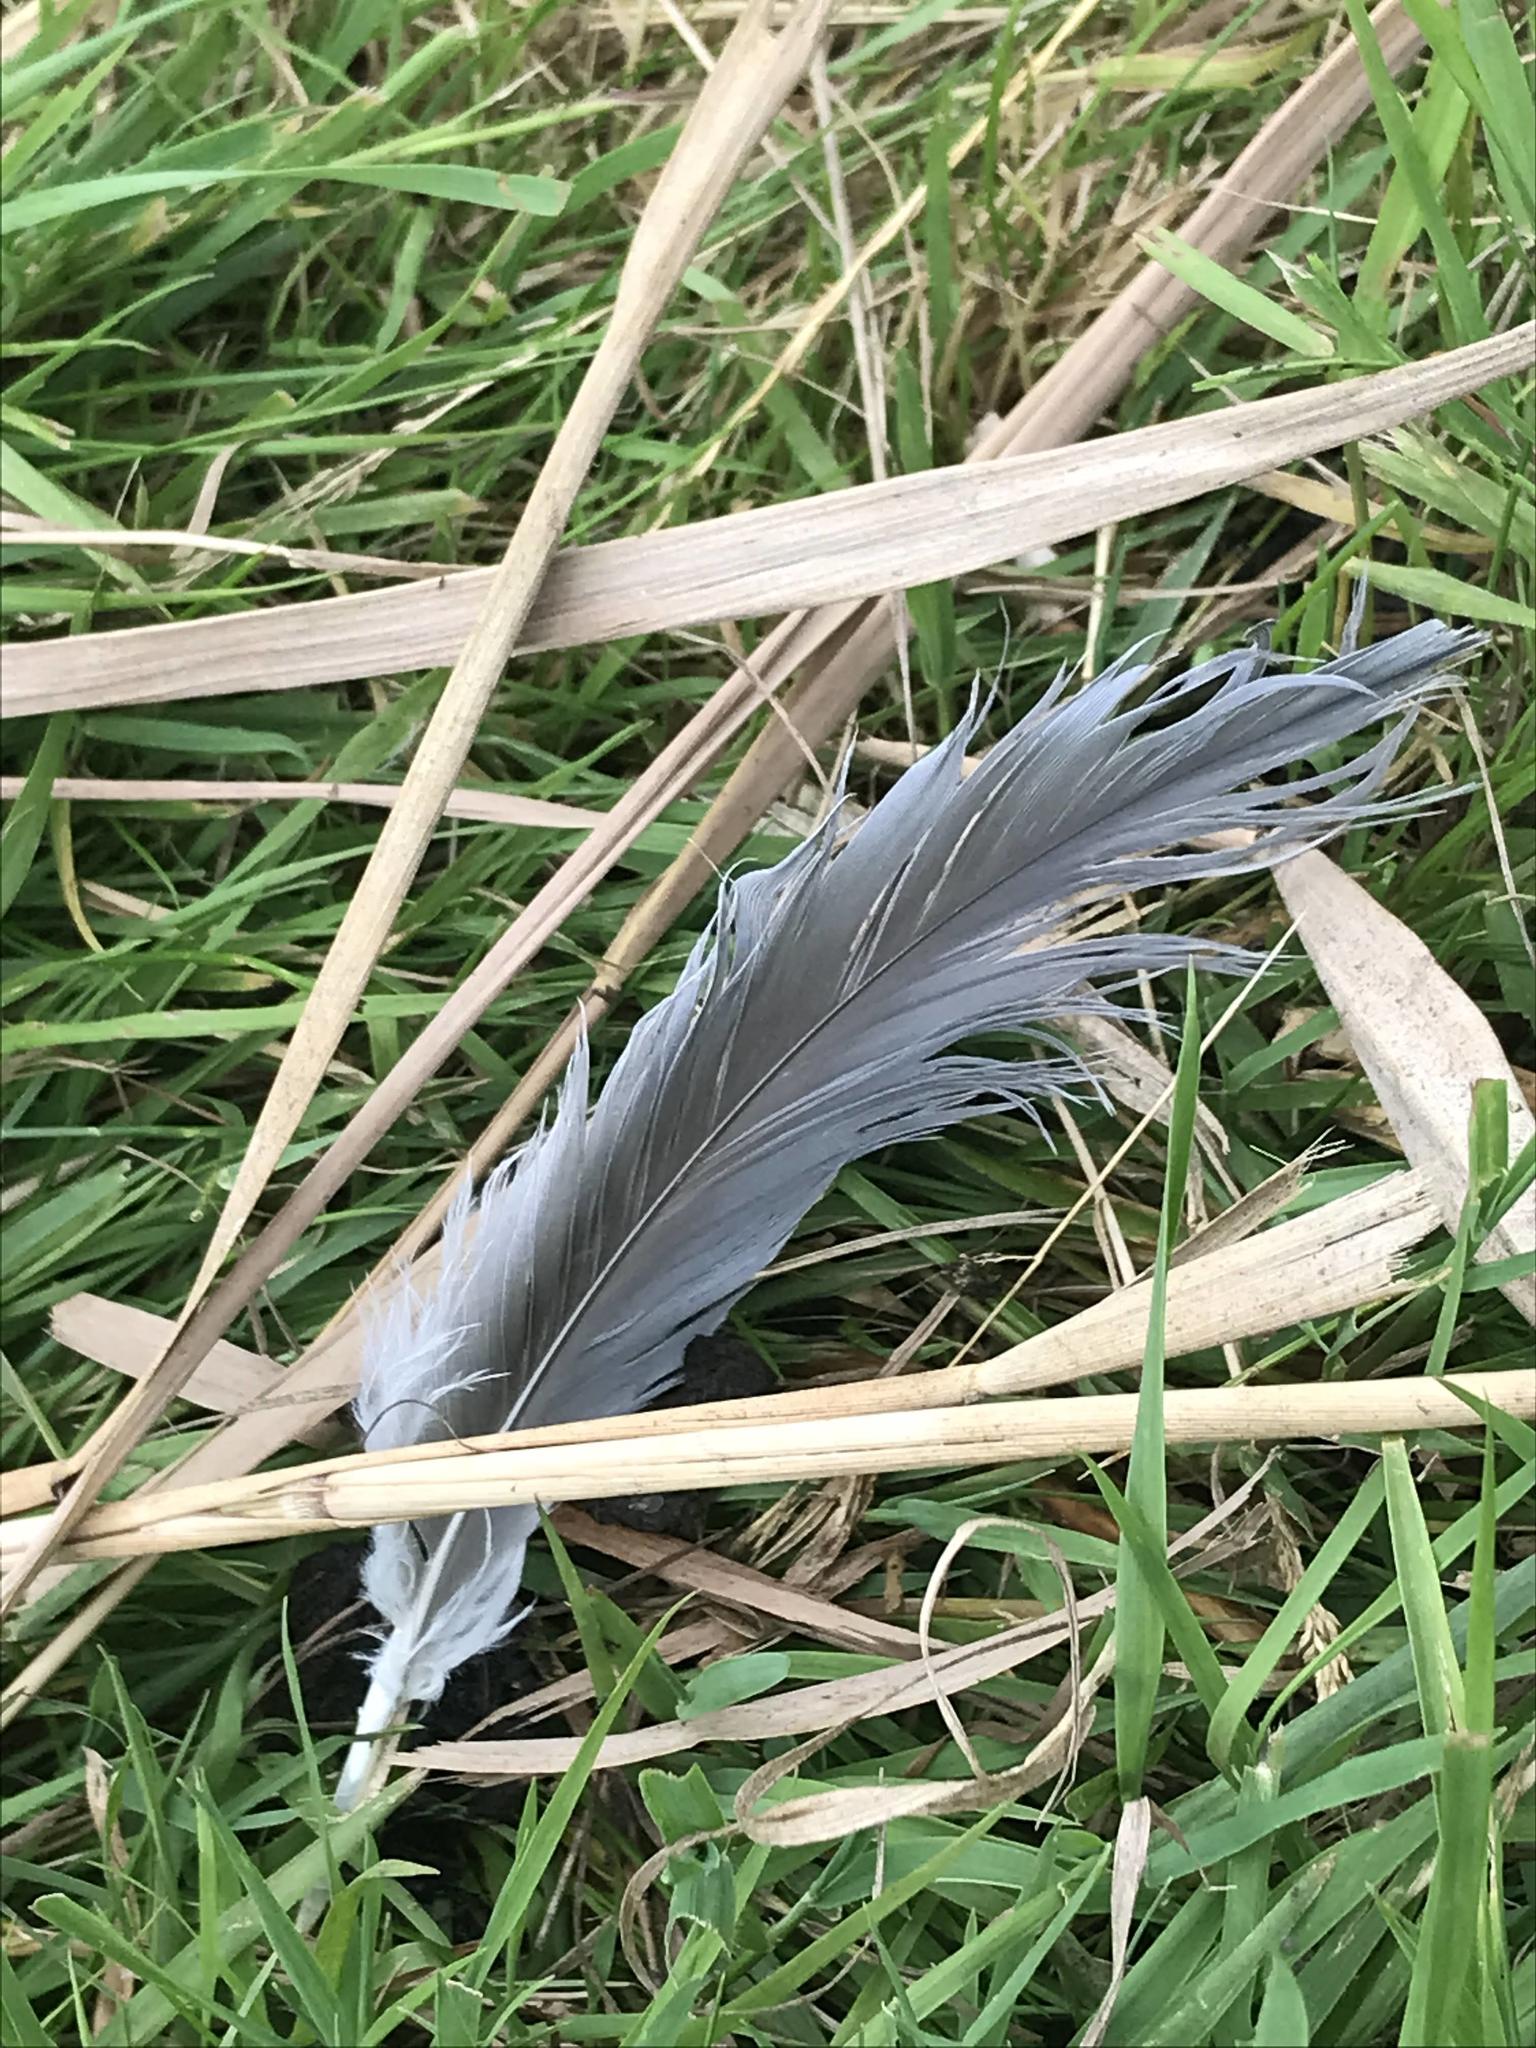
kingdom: Animalia
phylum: Chordata
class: Aves
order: Pelecaniformes
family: Ardeidae
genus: Ardea
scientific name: Ardea cinerea
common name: Grey heron
